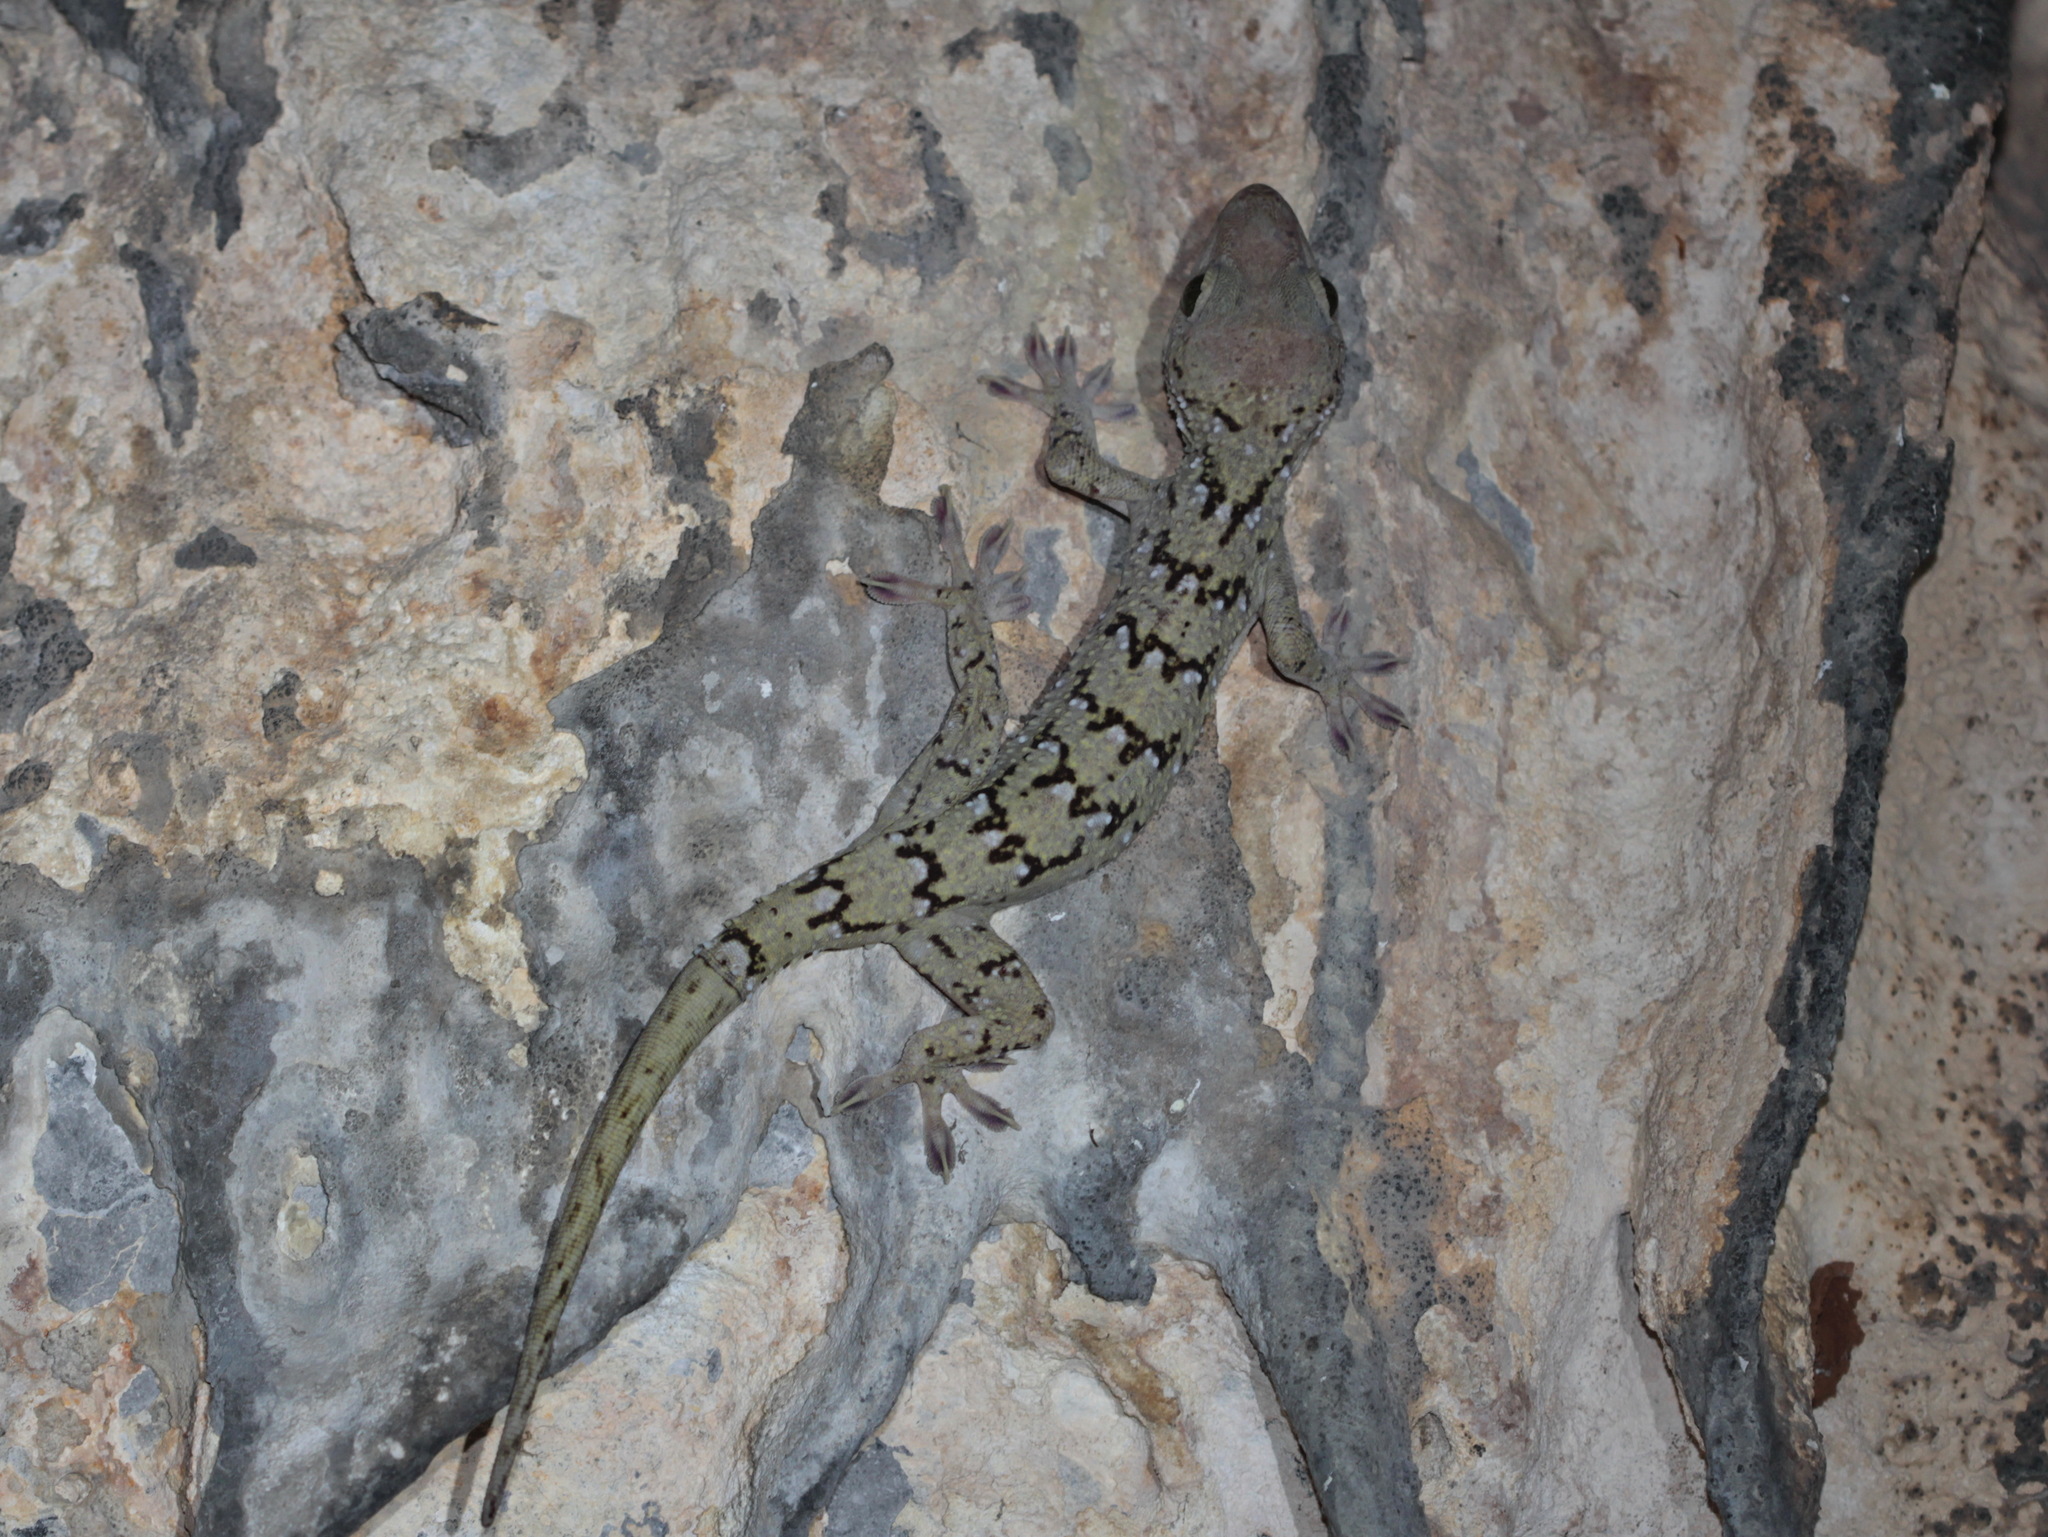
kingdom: Animalia
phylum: Chordata
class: Squamata
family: Gekkonidae
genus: Gekko
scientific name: Gekko siamensis
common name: Siamese green-eyed gecko
